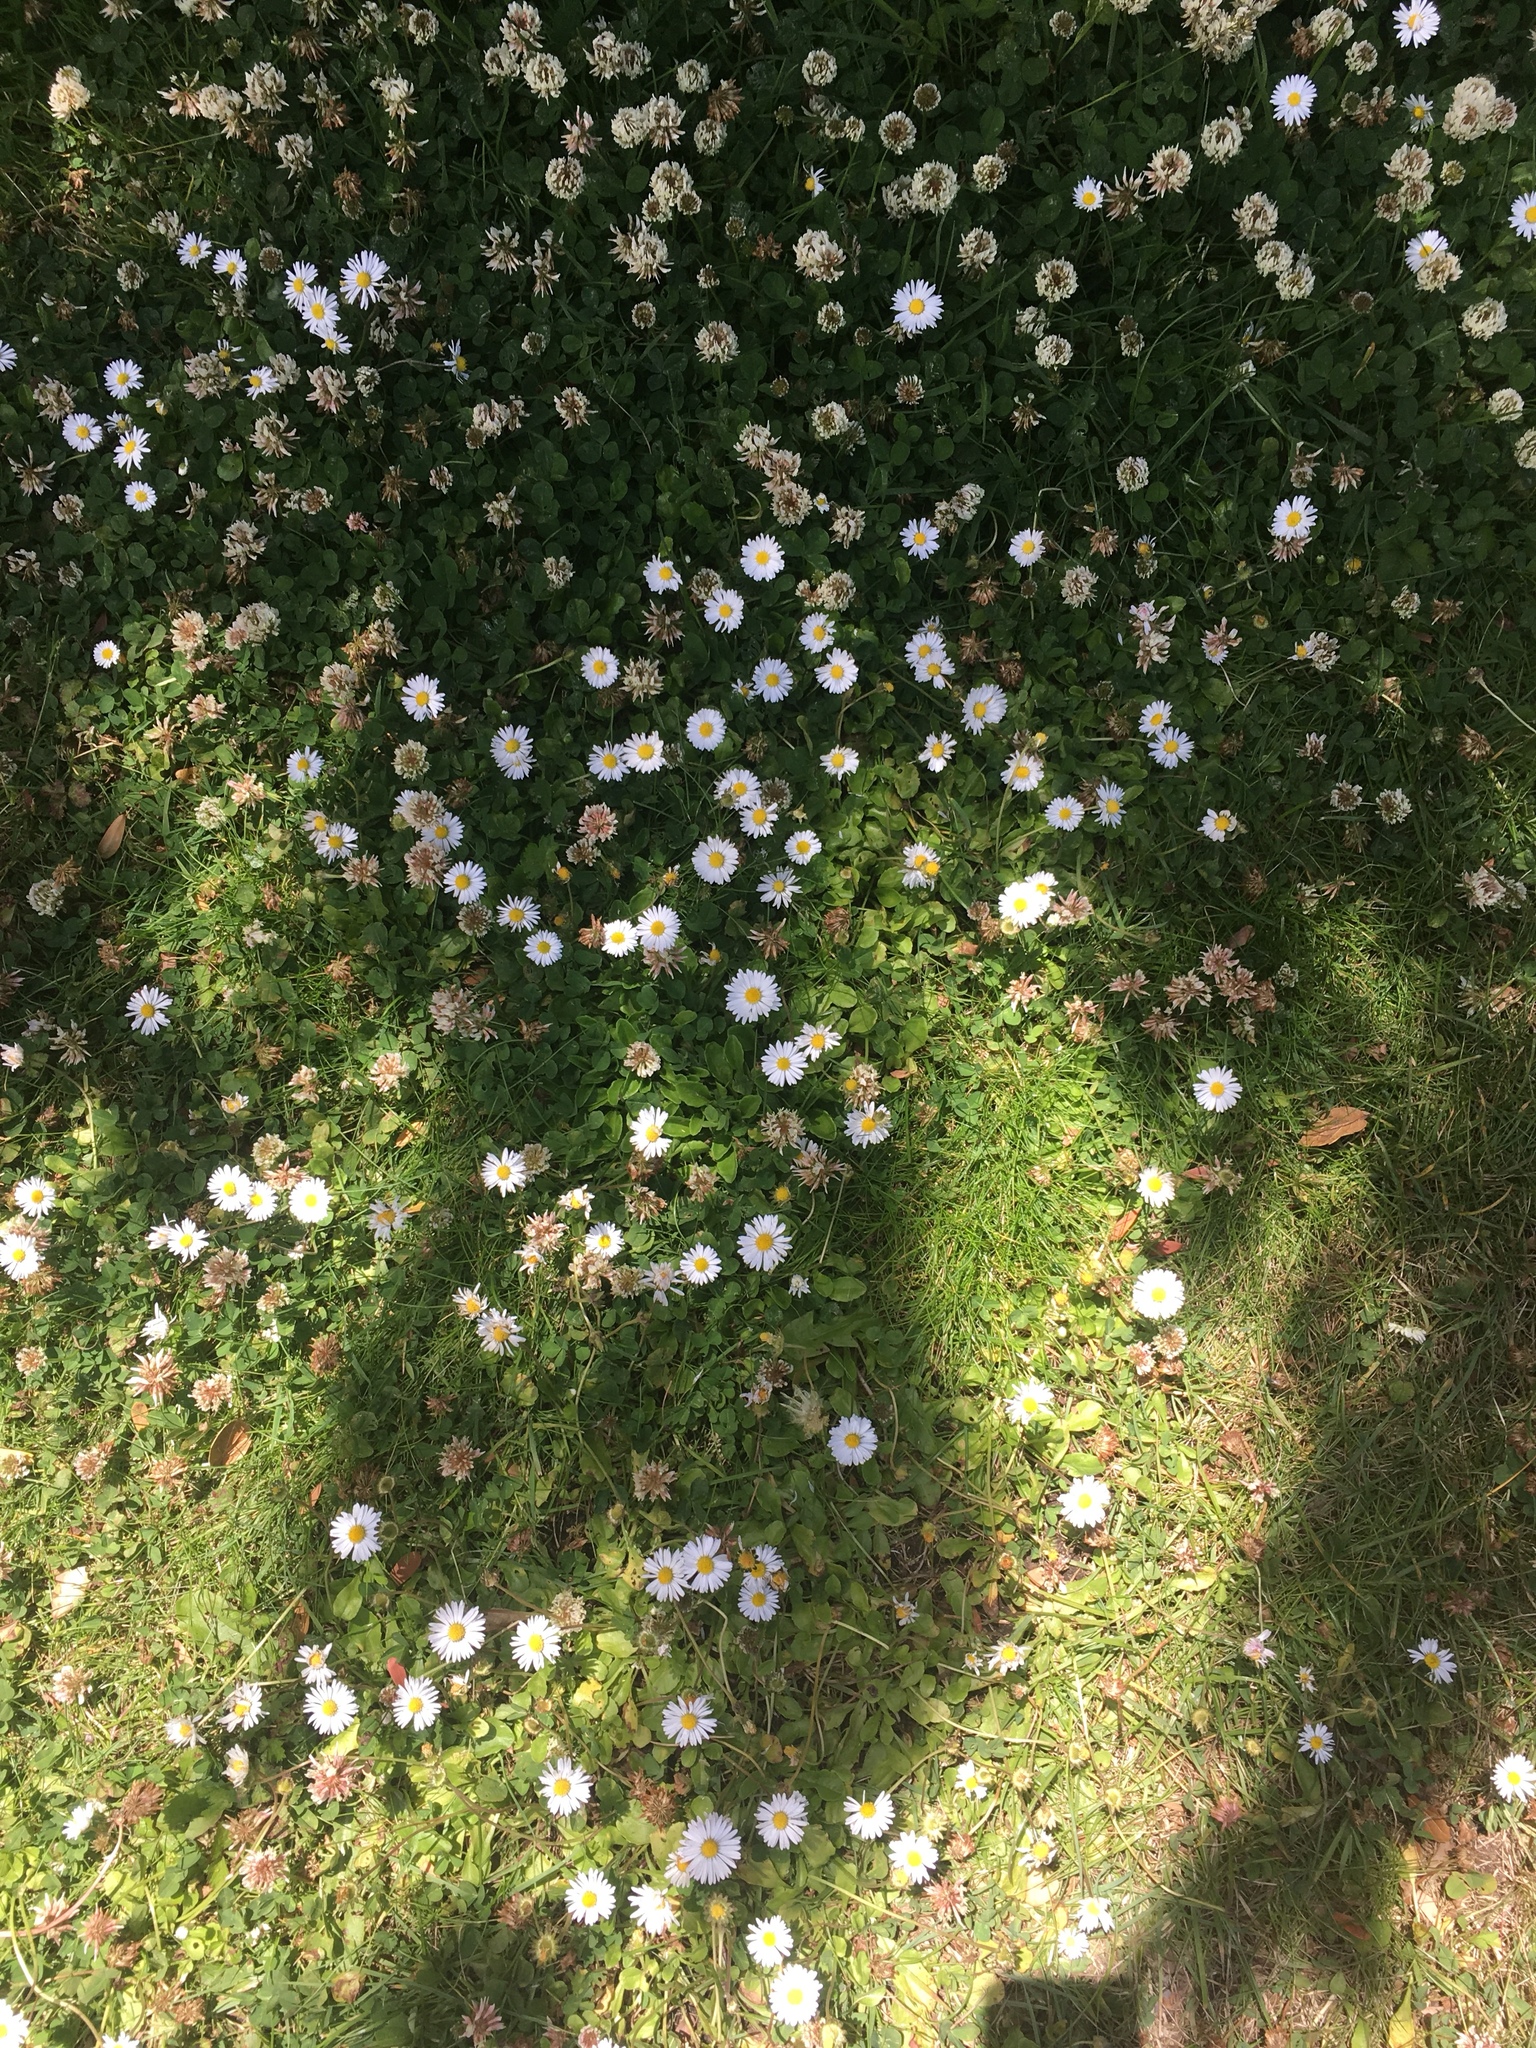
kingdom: Plantae
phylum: Tracheophyta
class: Magnoliopsida
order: Asterales
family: Asteraceae
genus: Bellis
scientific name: Bellis perennis
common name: Lawndaisy
